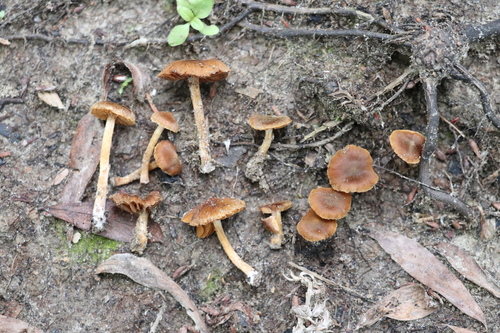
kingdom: Fungi
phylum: Basidiomycota
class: Agaricomycetes
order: Agaricales
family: Cortinariaceae
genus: Cortinarius
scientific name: Cortinarius
